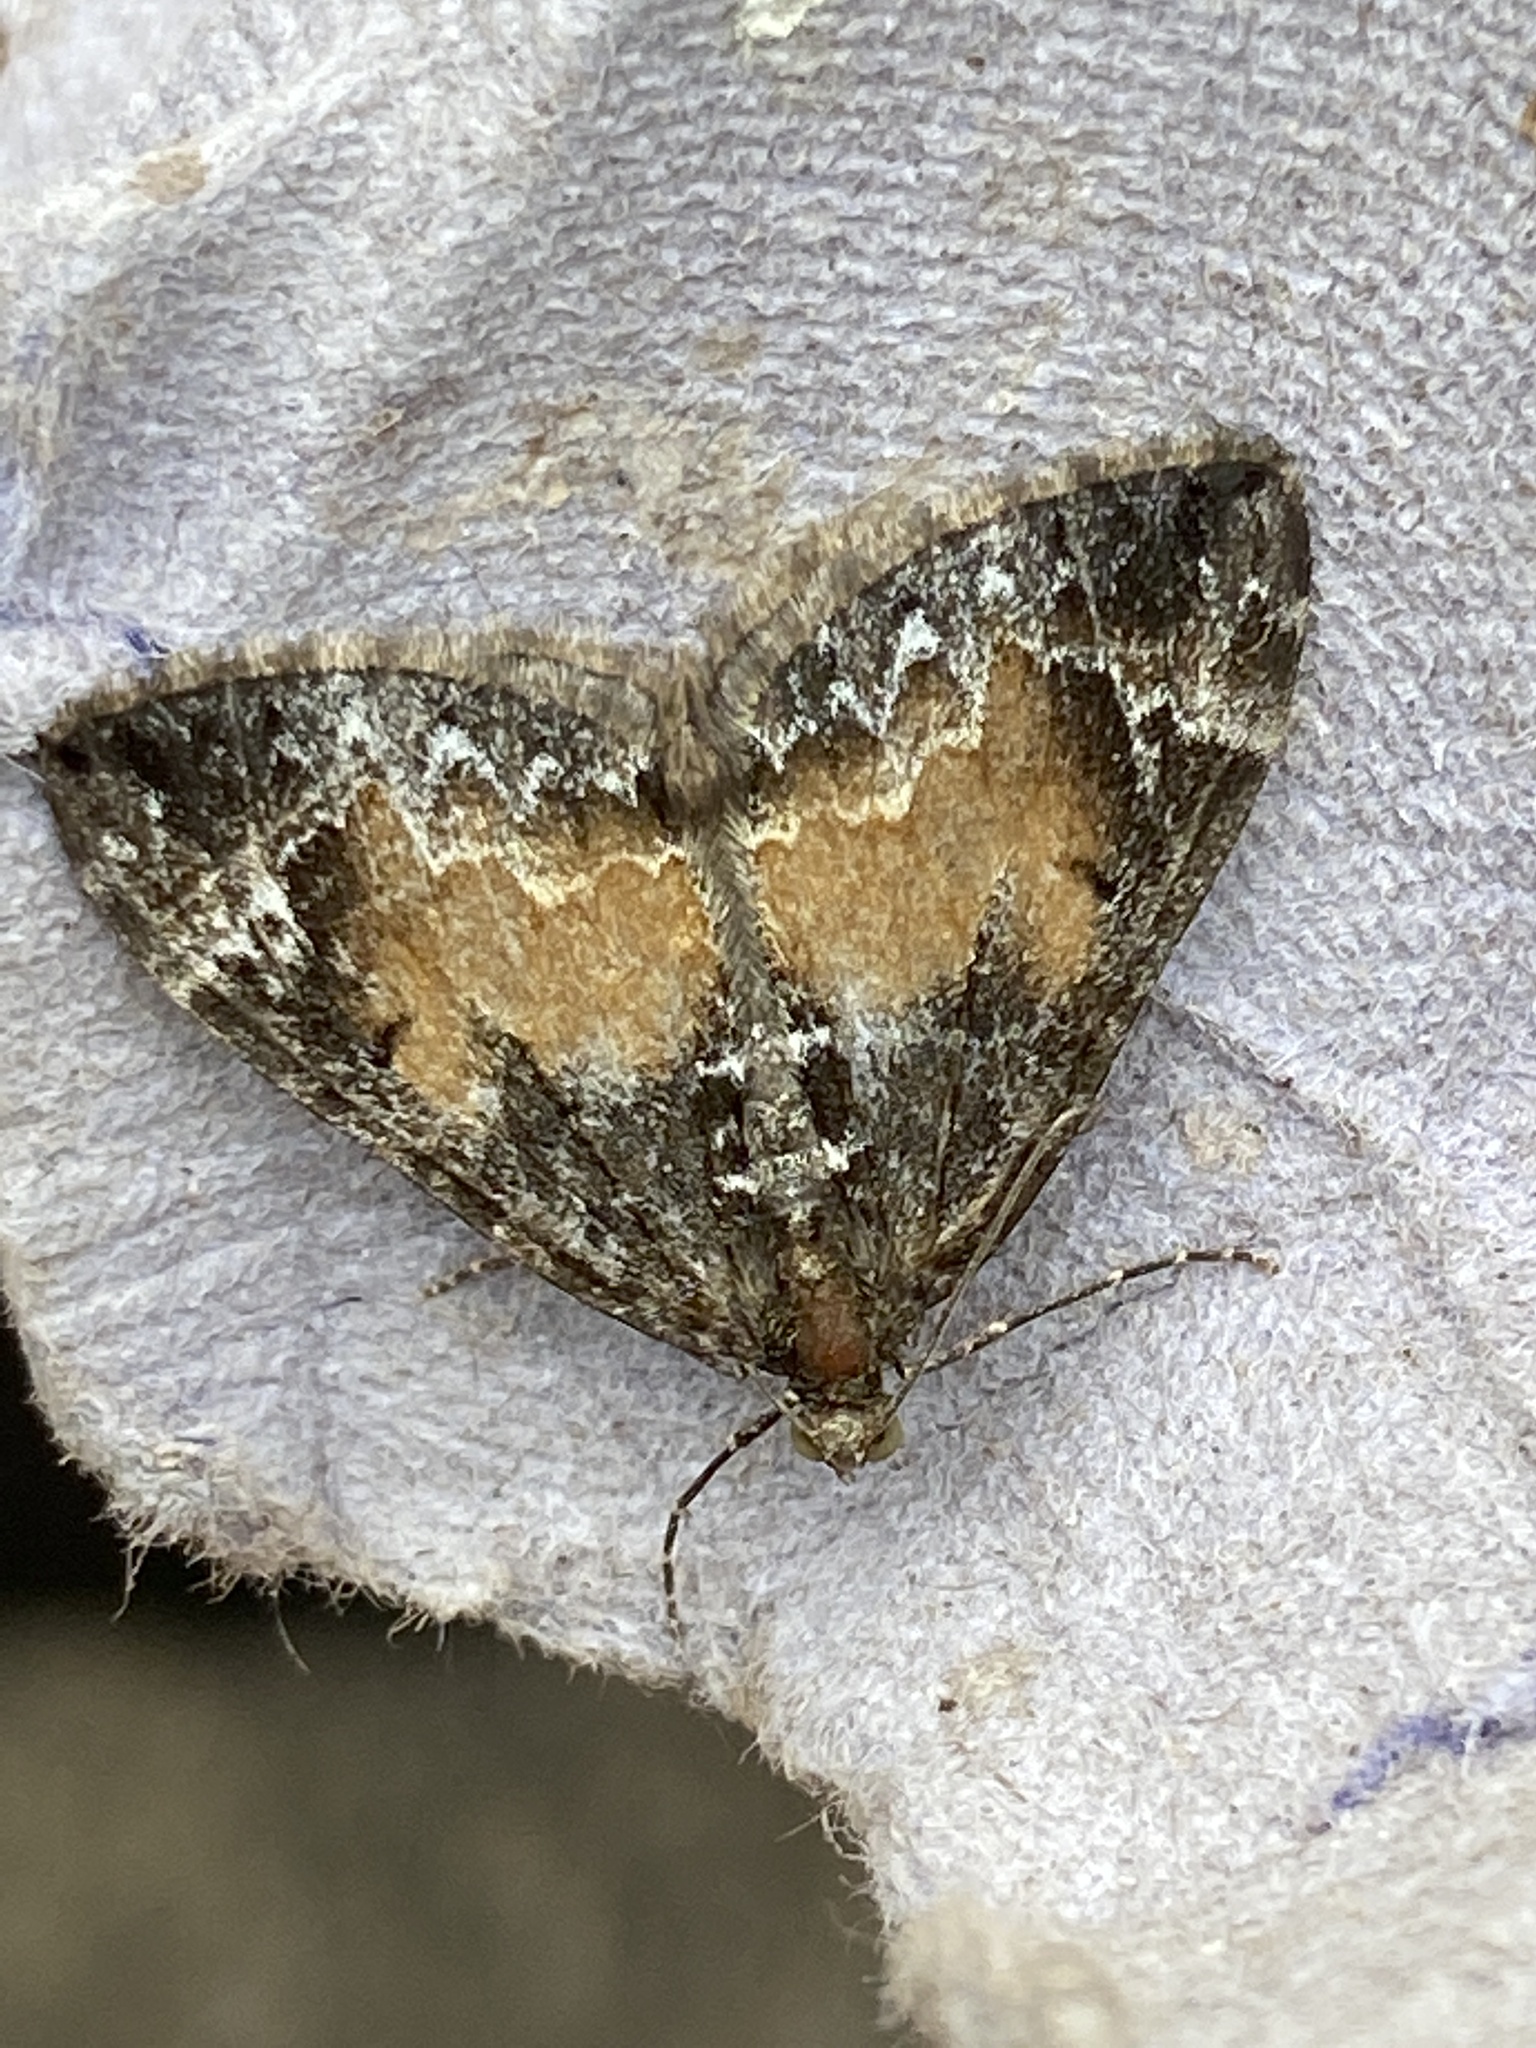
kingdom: Animalia
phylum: Arthropoda
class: Insecta
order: Lepidoptera
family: Geometridae
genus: Dysstroma
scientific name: Dysstroma truncata
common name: Common marbled carpet
